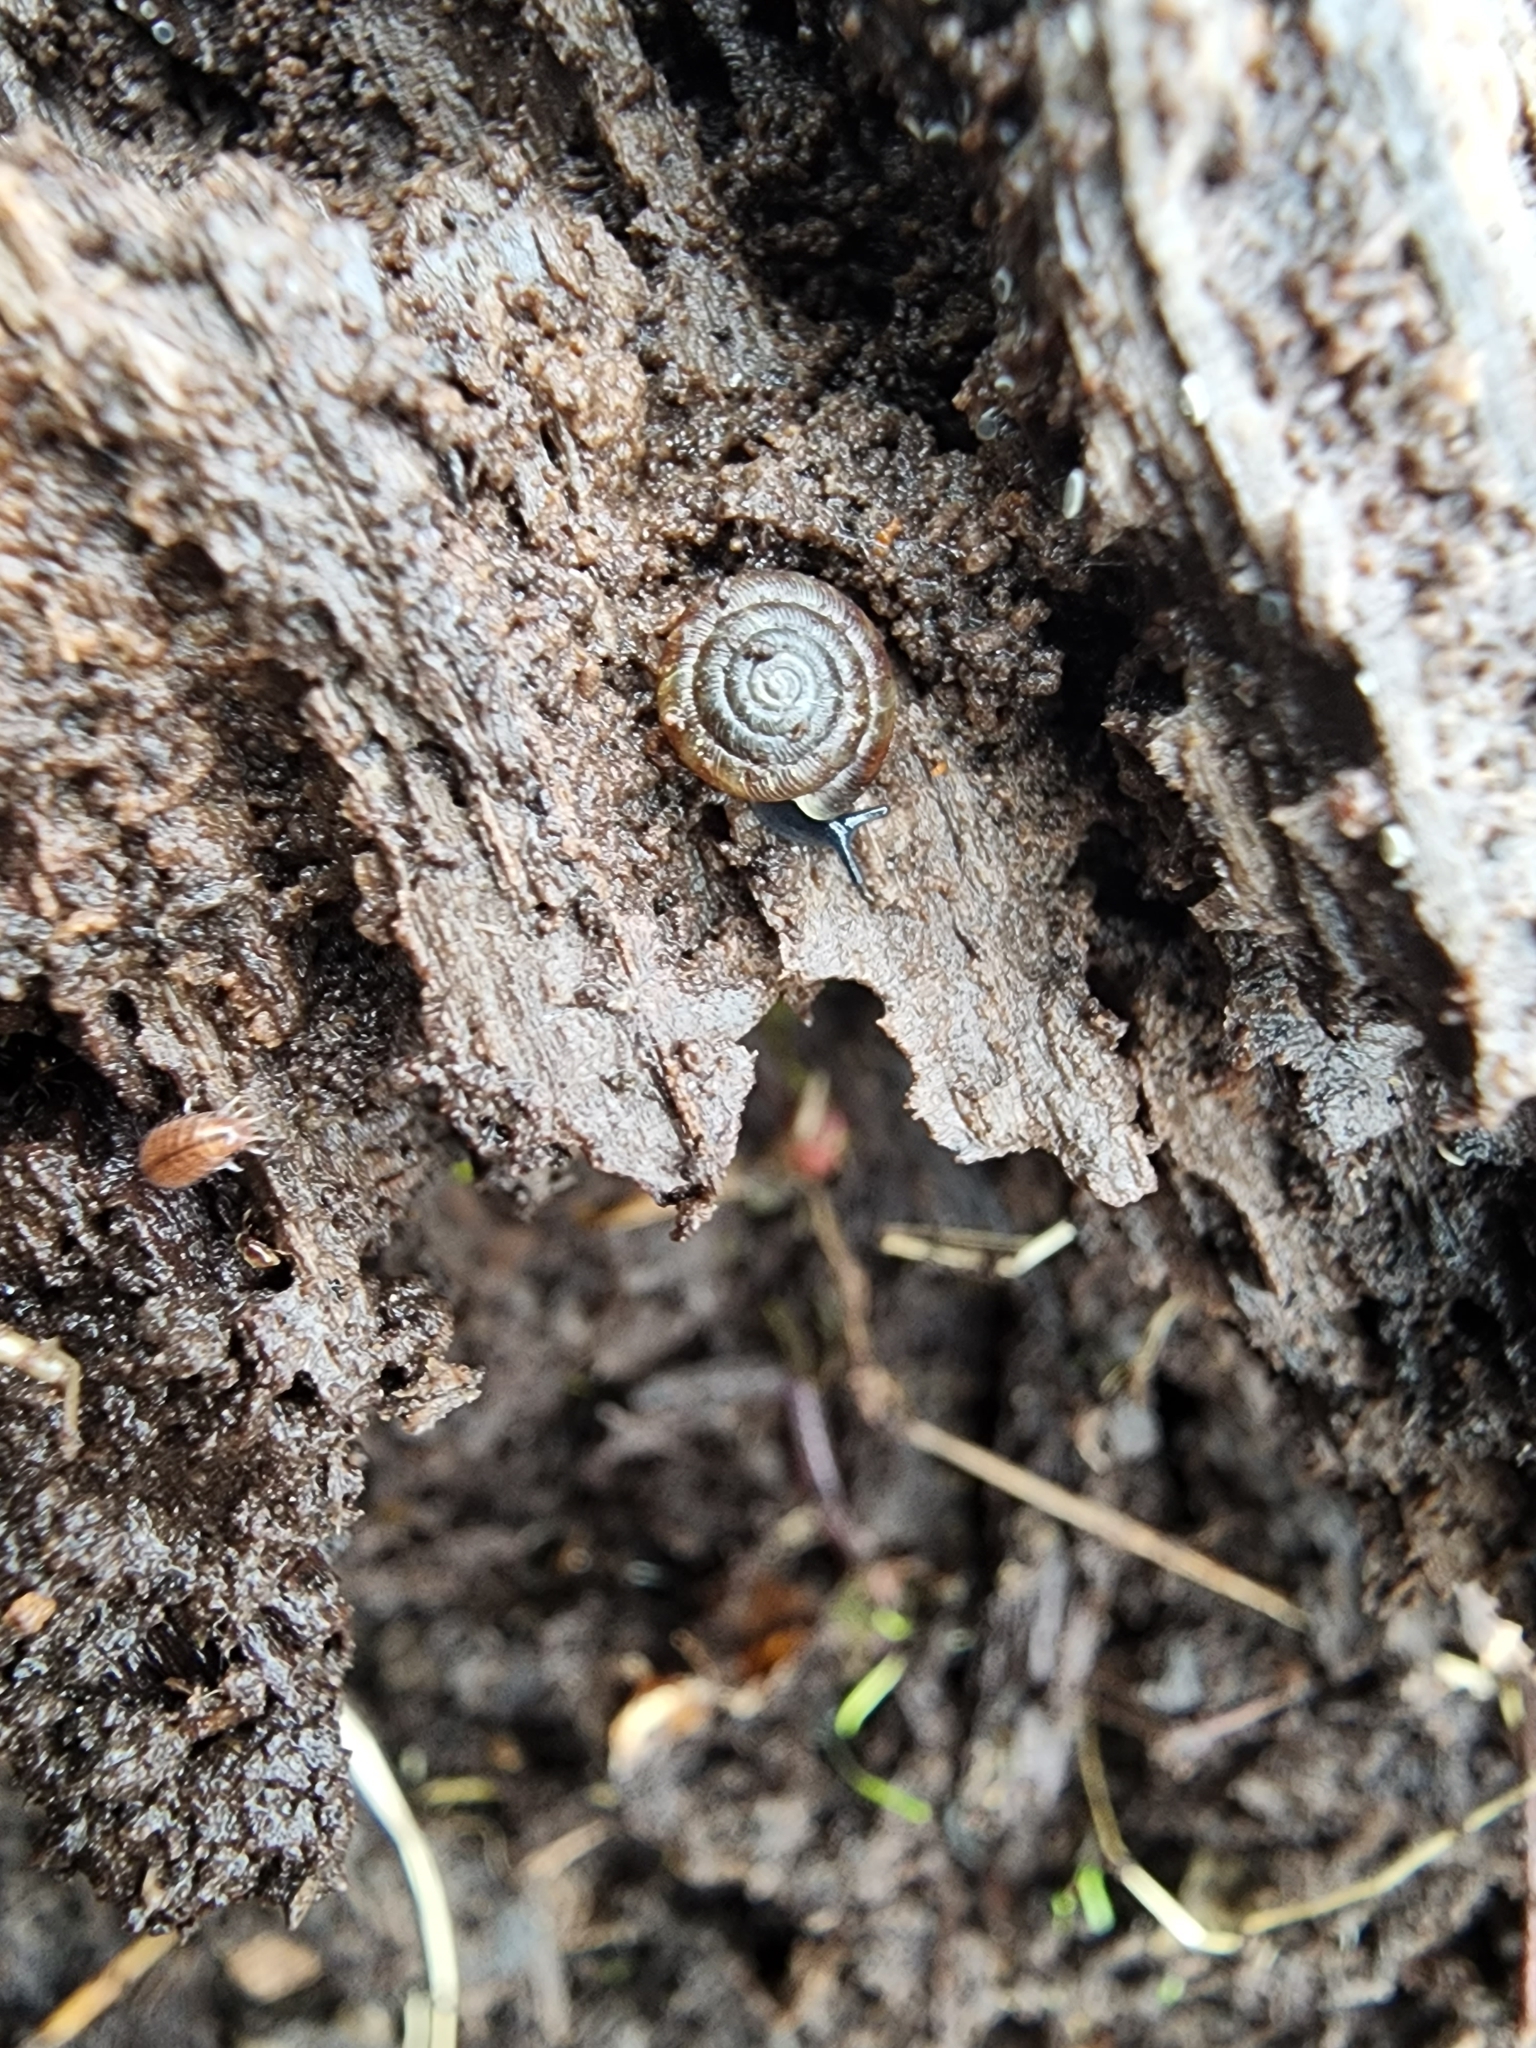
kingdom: Animalia
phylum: Mollusca
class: Gastropoda
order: Stylommatophora
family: Discidae
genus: Discus
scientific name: Discus rotundatus
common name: Rounded snail
